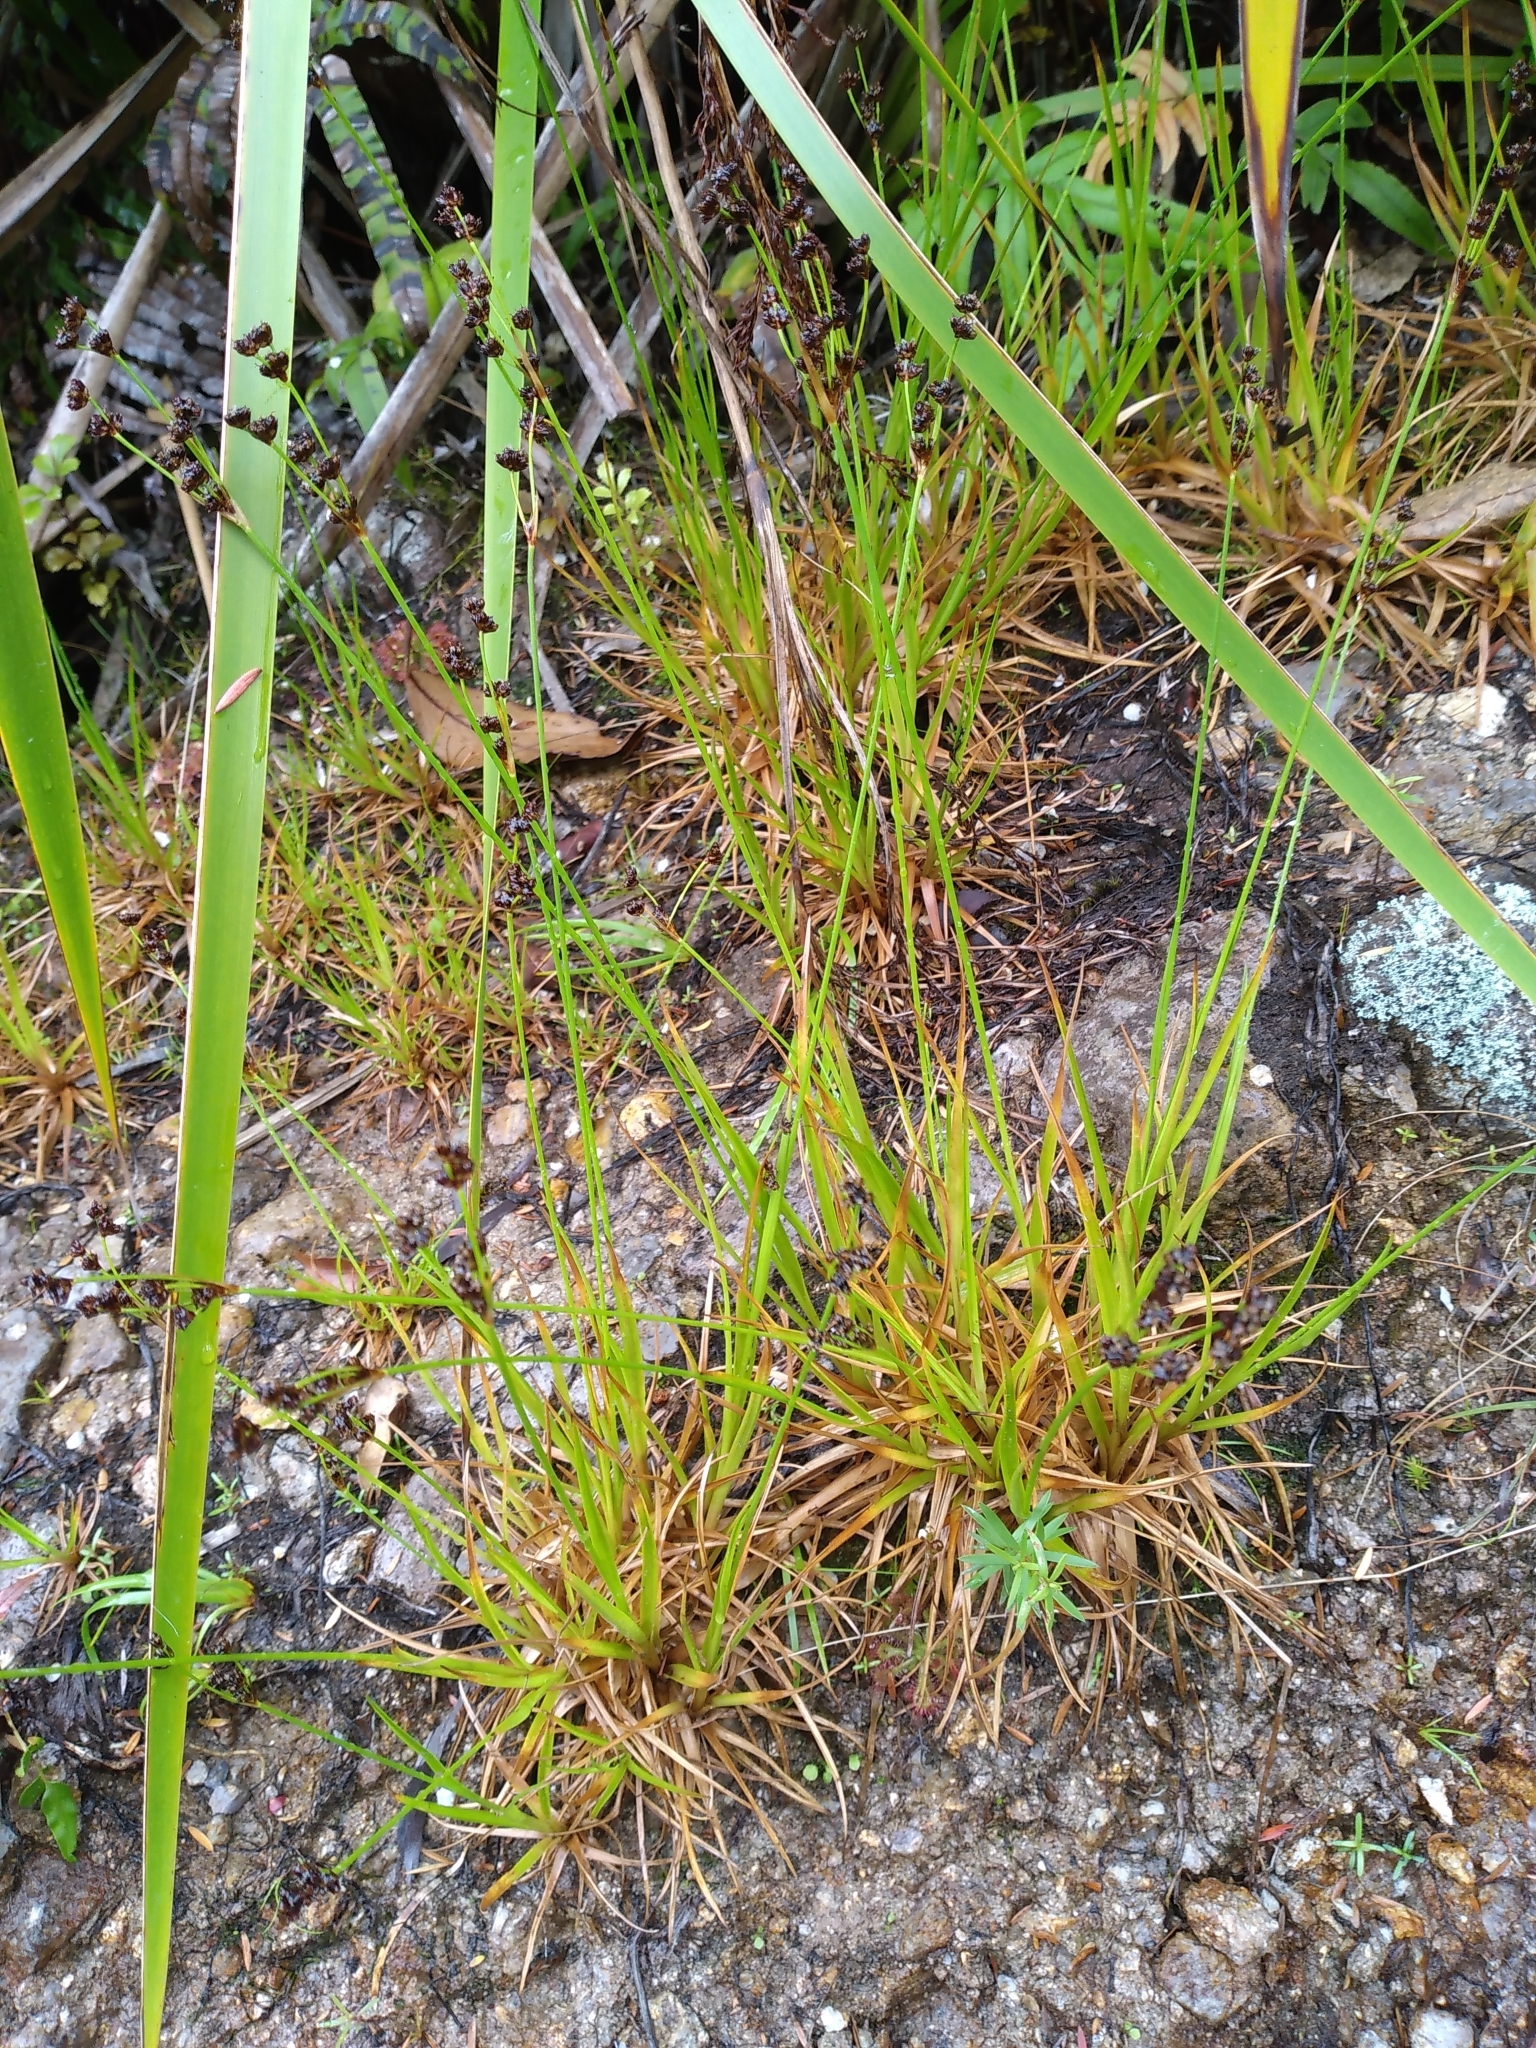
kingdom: Plantae
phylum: Tracheophyta
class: Liliopsida
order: Poales
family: Juncaceae
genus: Juncus
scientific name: Juncus planifolius
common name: Broadleaf rush
